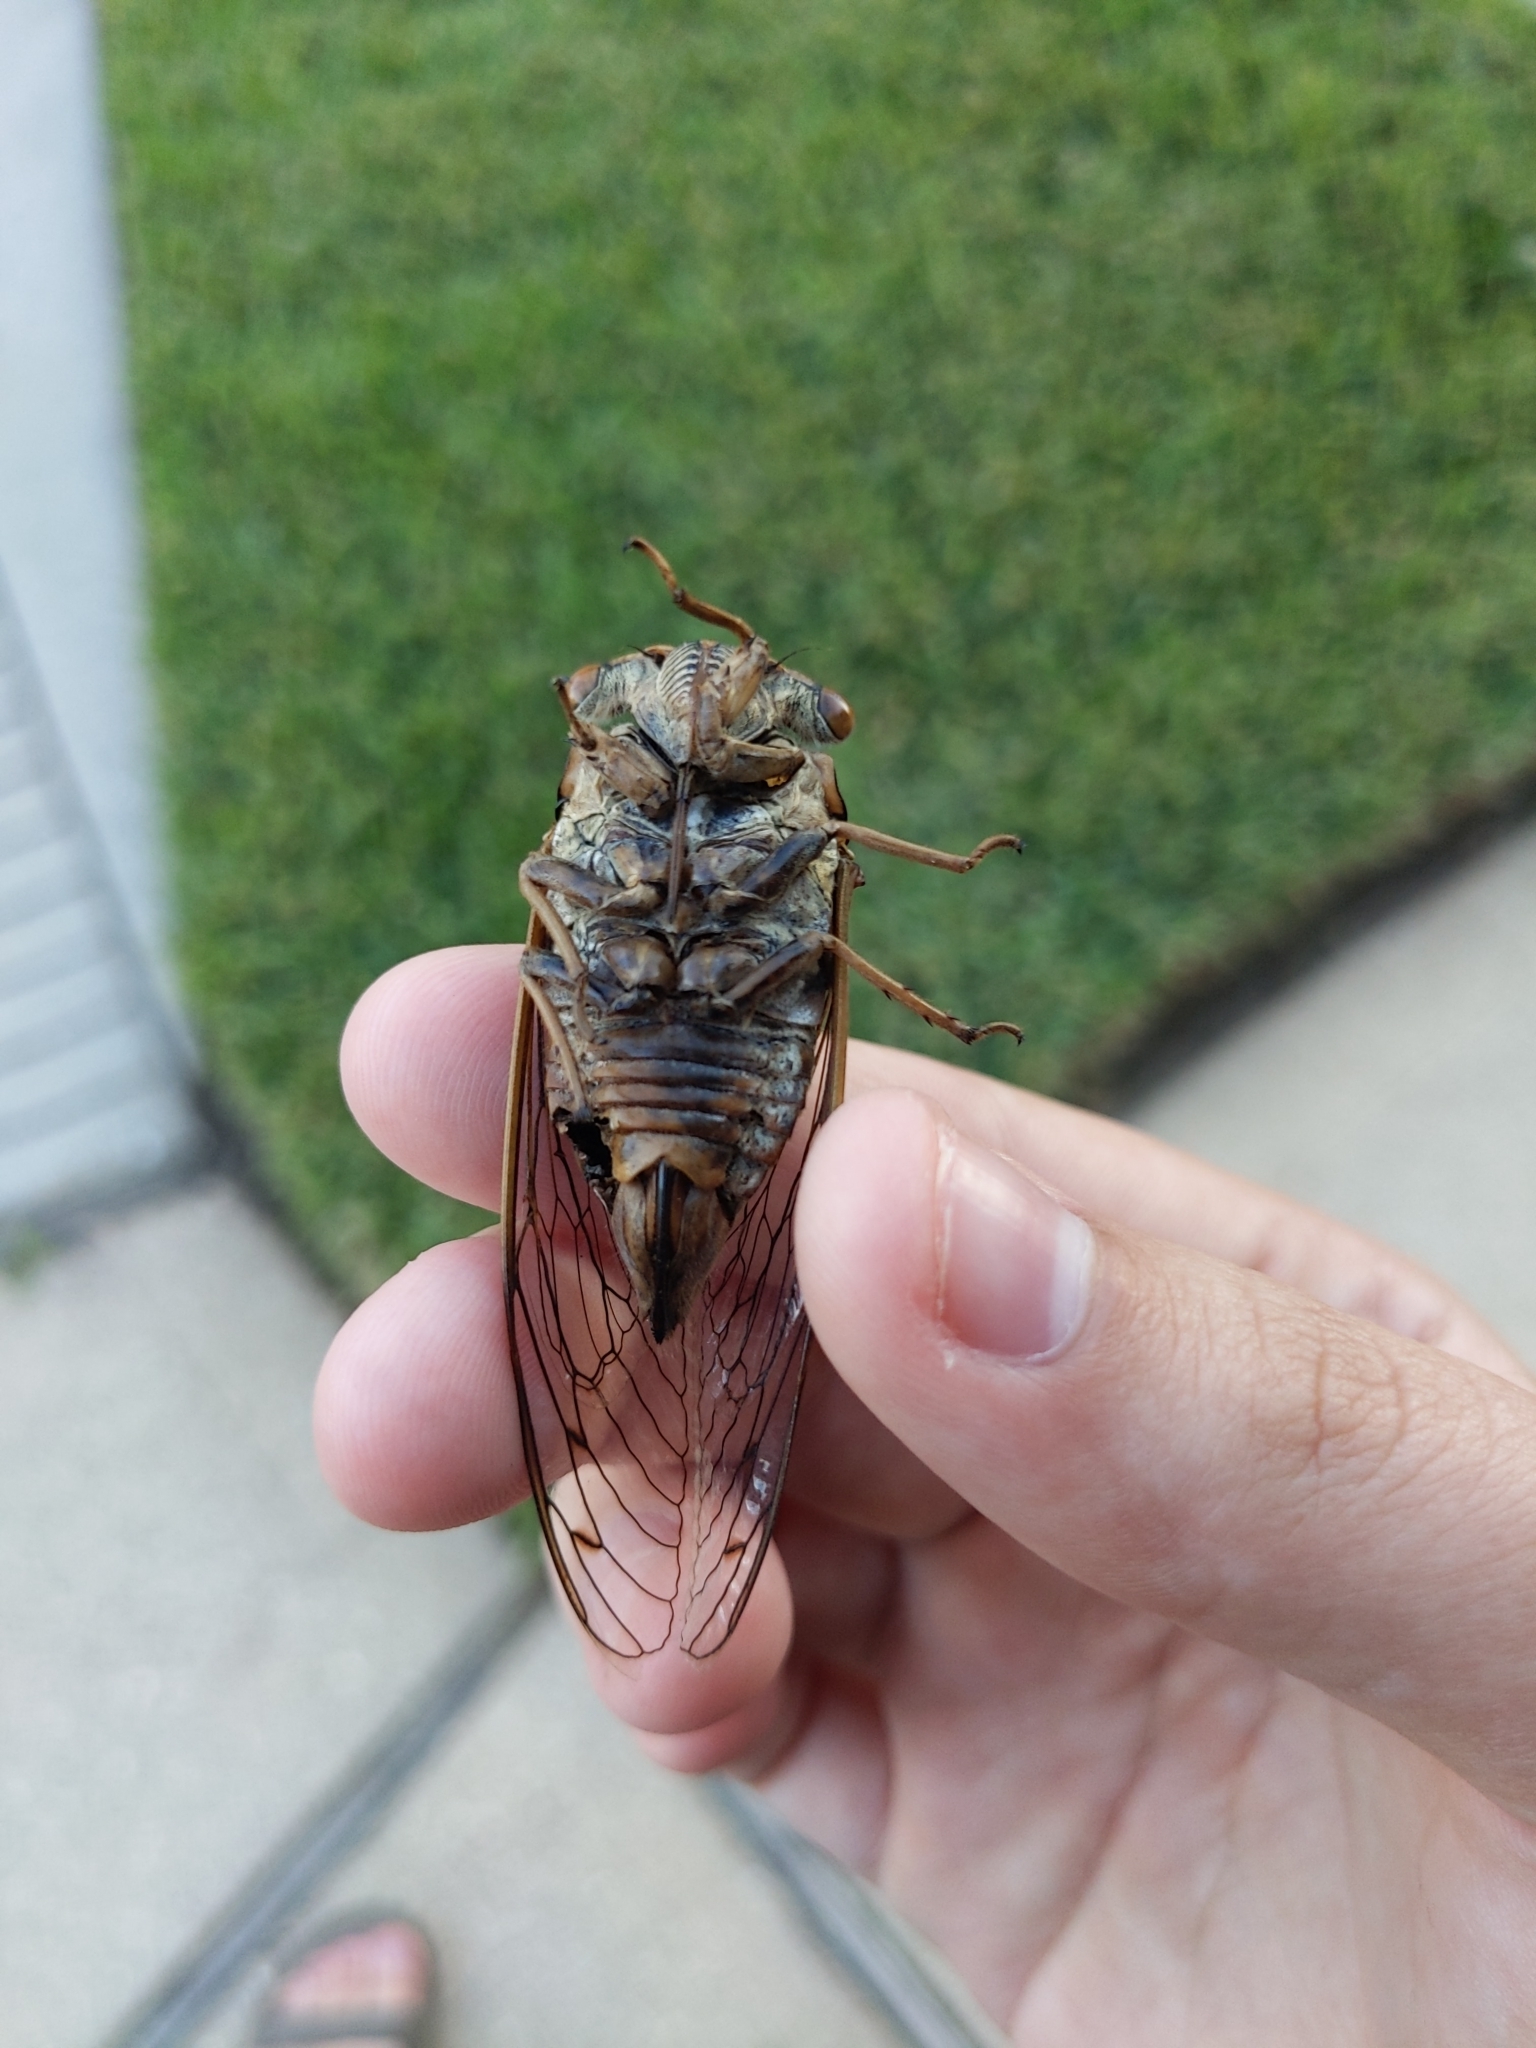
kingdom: Animalia
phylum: Arthropoda
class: Insecta
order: Hemiptera
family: Cicadidae
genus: Megatibicen
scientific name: Megatibicen resh
